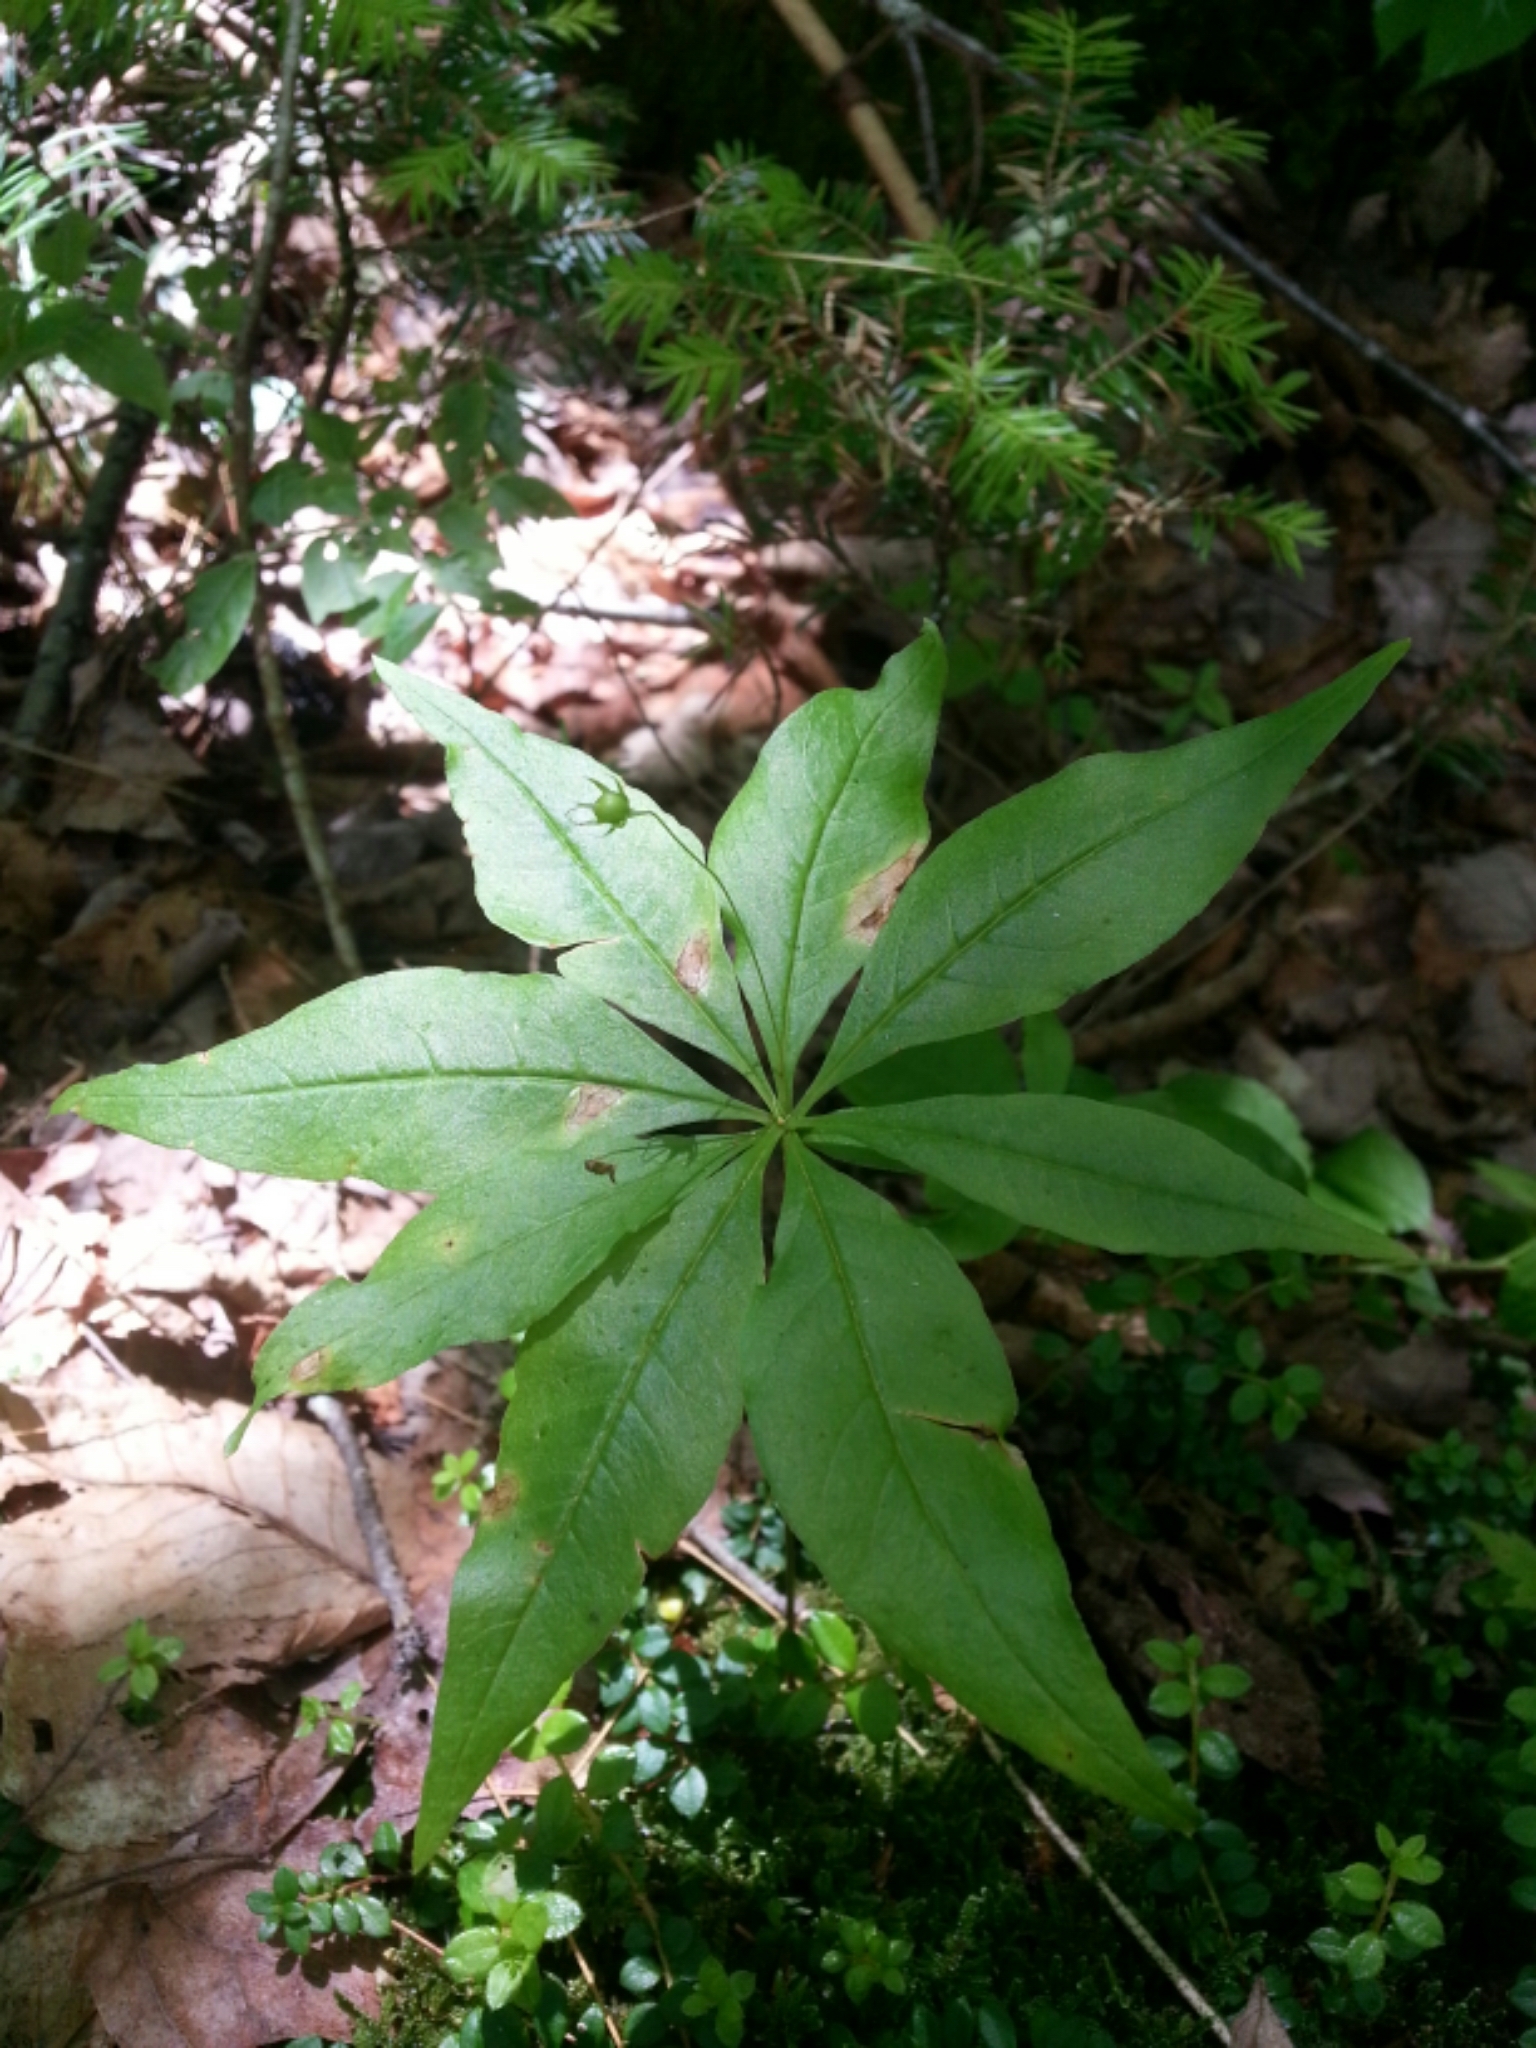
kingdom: Plantae
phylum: Tracheophyta
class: Magnoliopsida
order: Ericales
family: Primulaceae
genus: Lysimachia
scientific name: Lysimachia borealis
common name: American starflower
